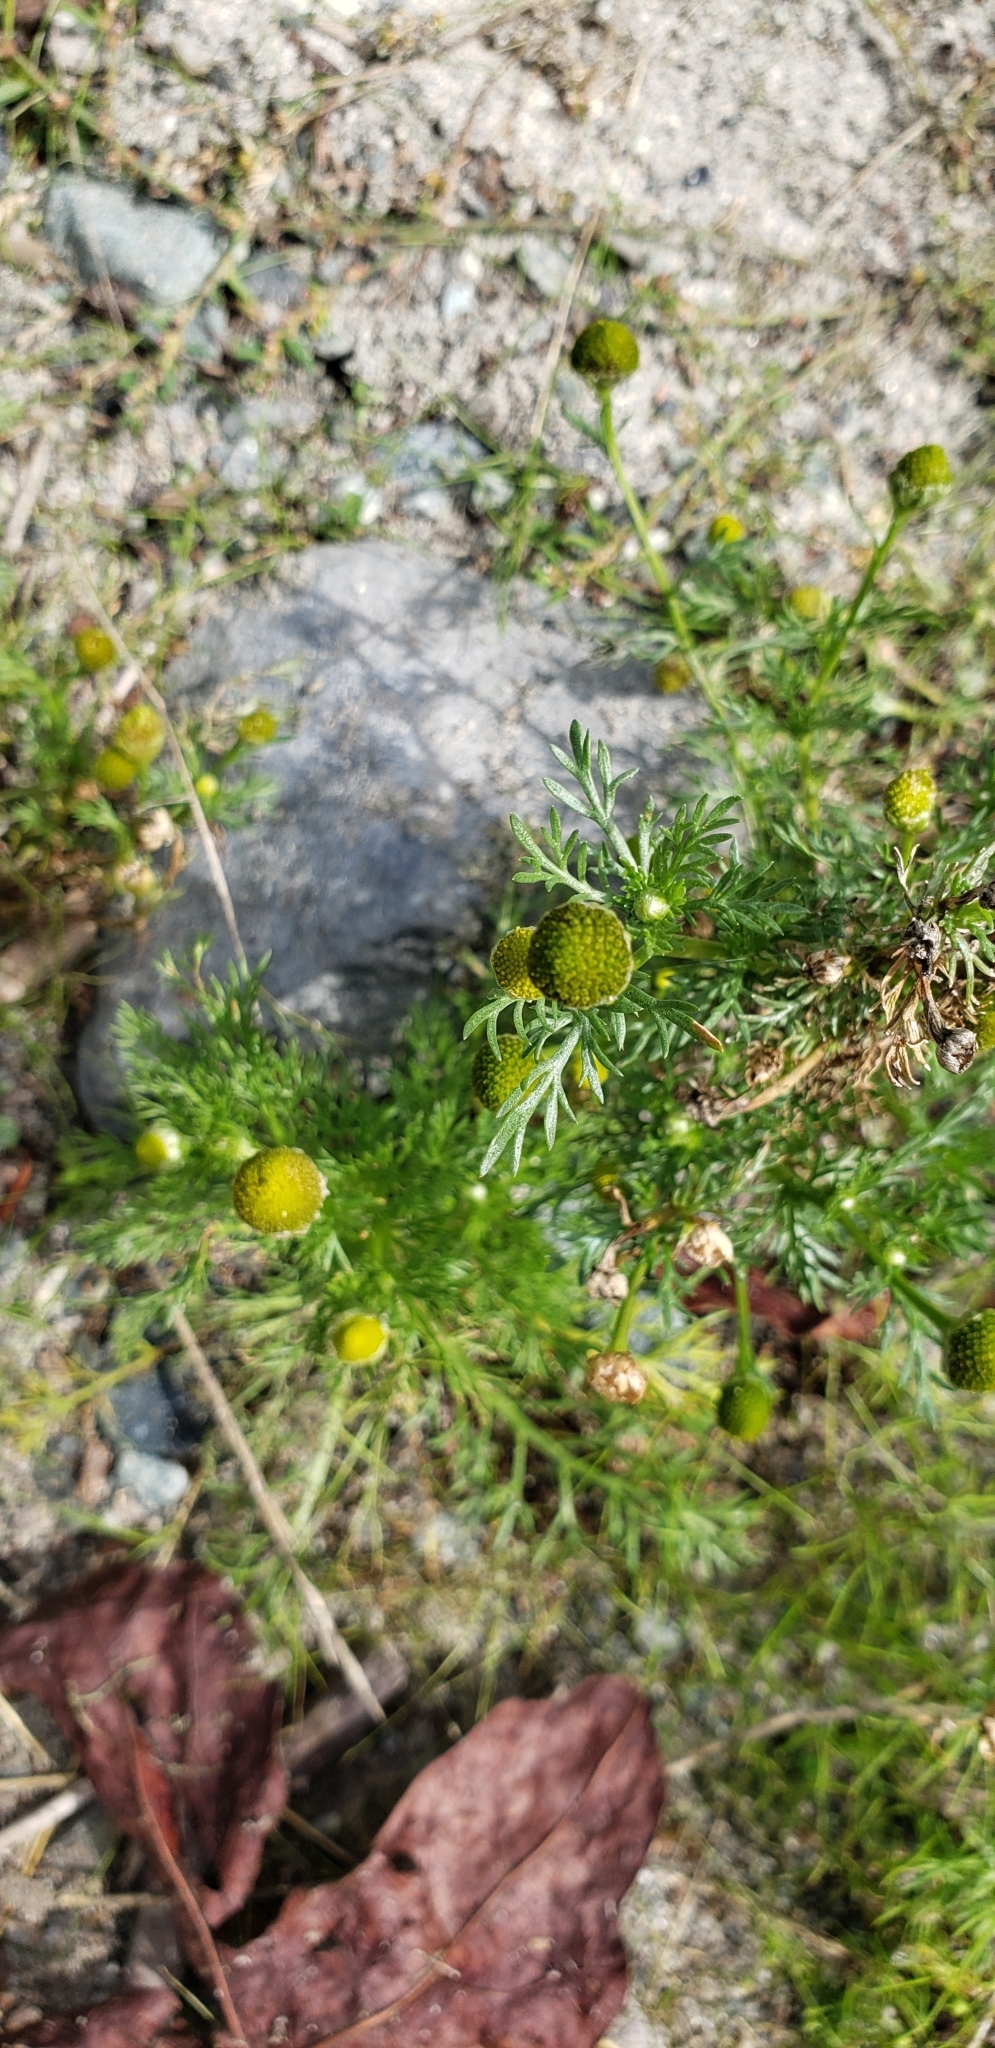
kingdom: Plantae
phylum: Tracheophyta
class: Magnoliopsida
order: Asterales
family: Asteraceae
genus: Matricaria
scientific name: Matricaria discoidea
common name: Disc mayweed
